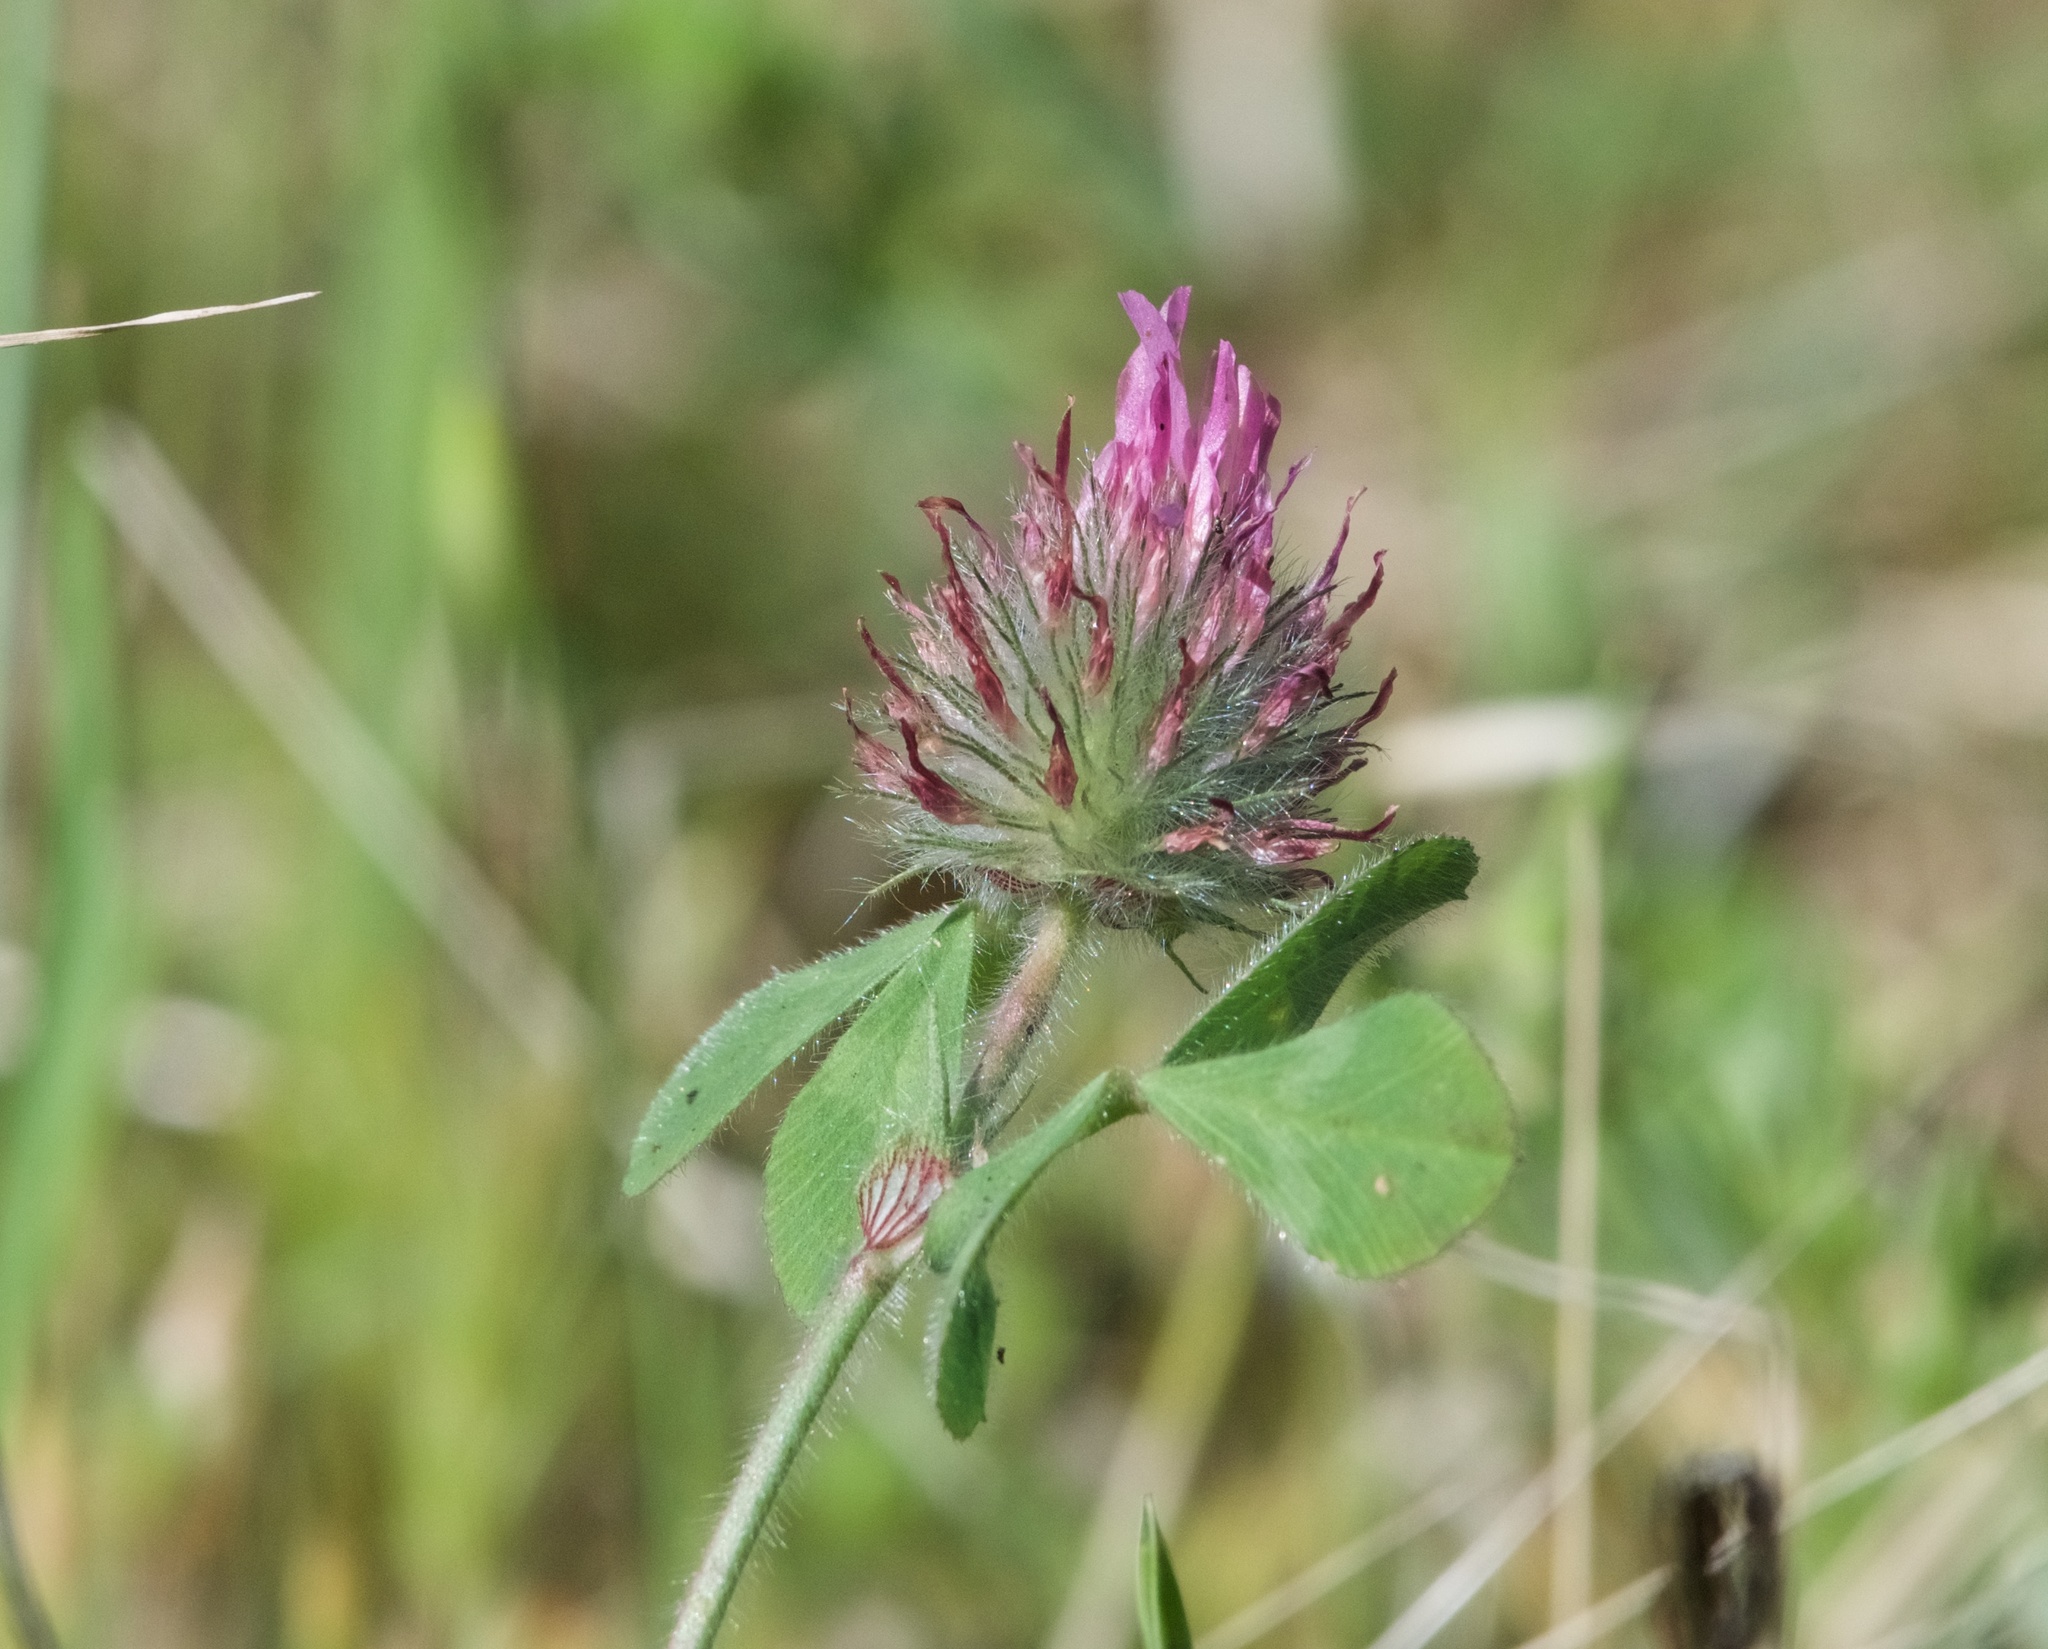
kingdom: Plantae
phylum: Tracheophyta
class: Magnoliopsida
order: Fabales
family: Fabaceae
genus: Trifolium
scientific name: Trifolium hirtum
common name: Rose clover
